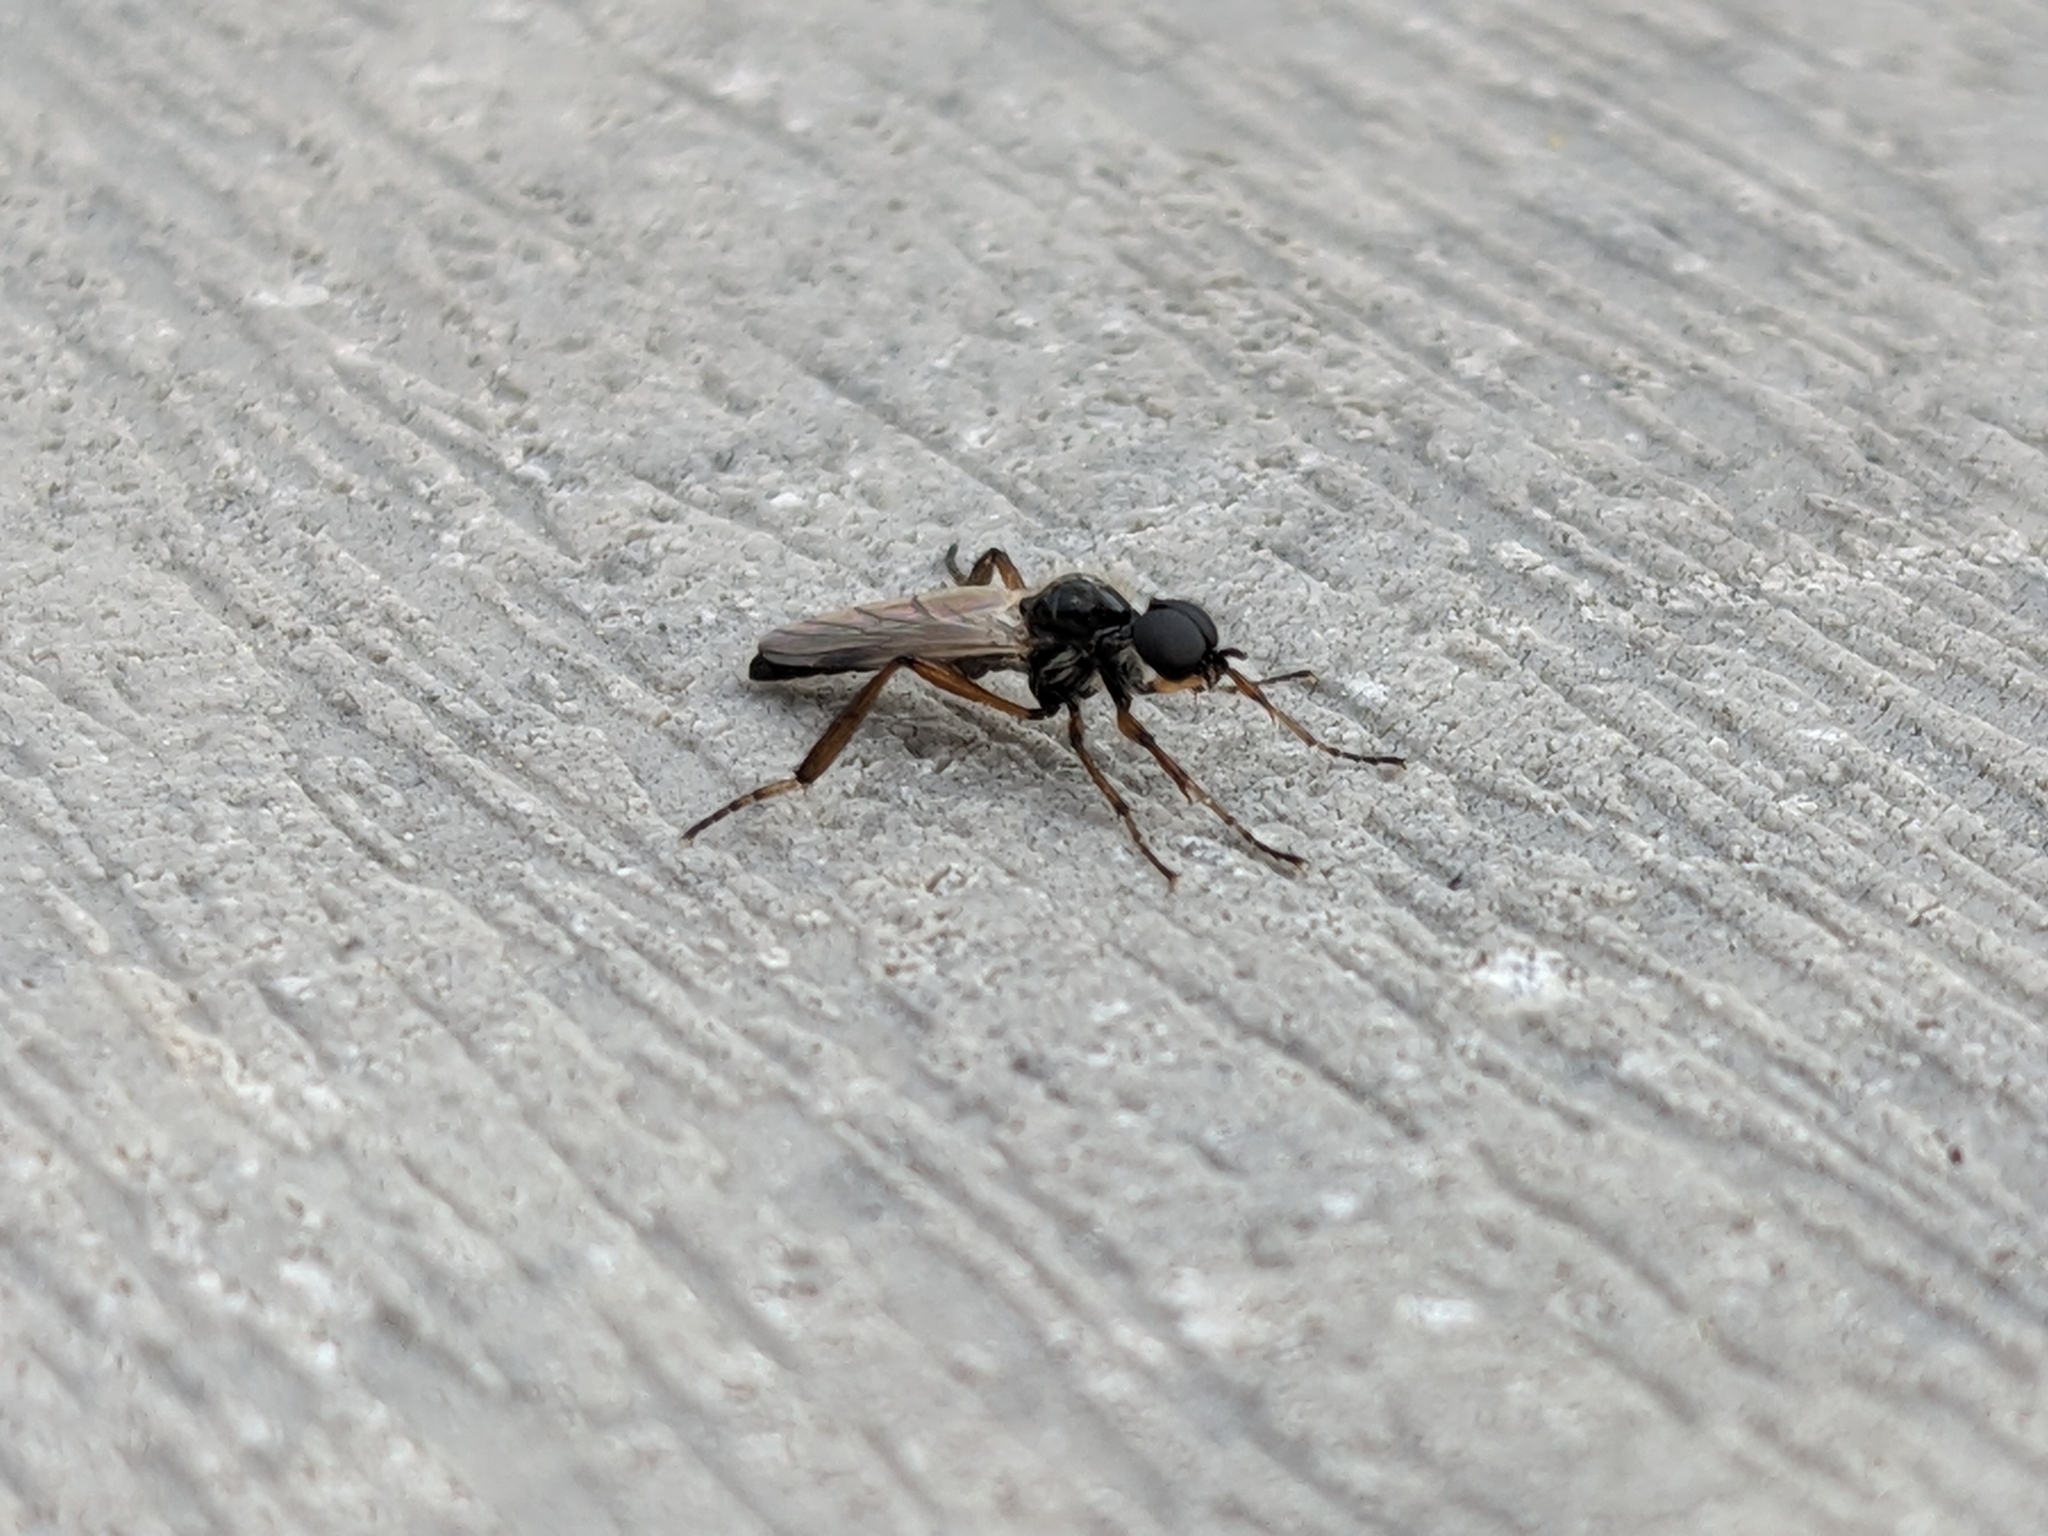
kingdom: Animalia
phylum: Arthropoda
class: Insecta
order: Diptera
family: Bibionidae
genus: Bibio
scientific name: Bibio articulatus
